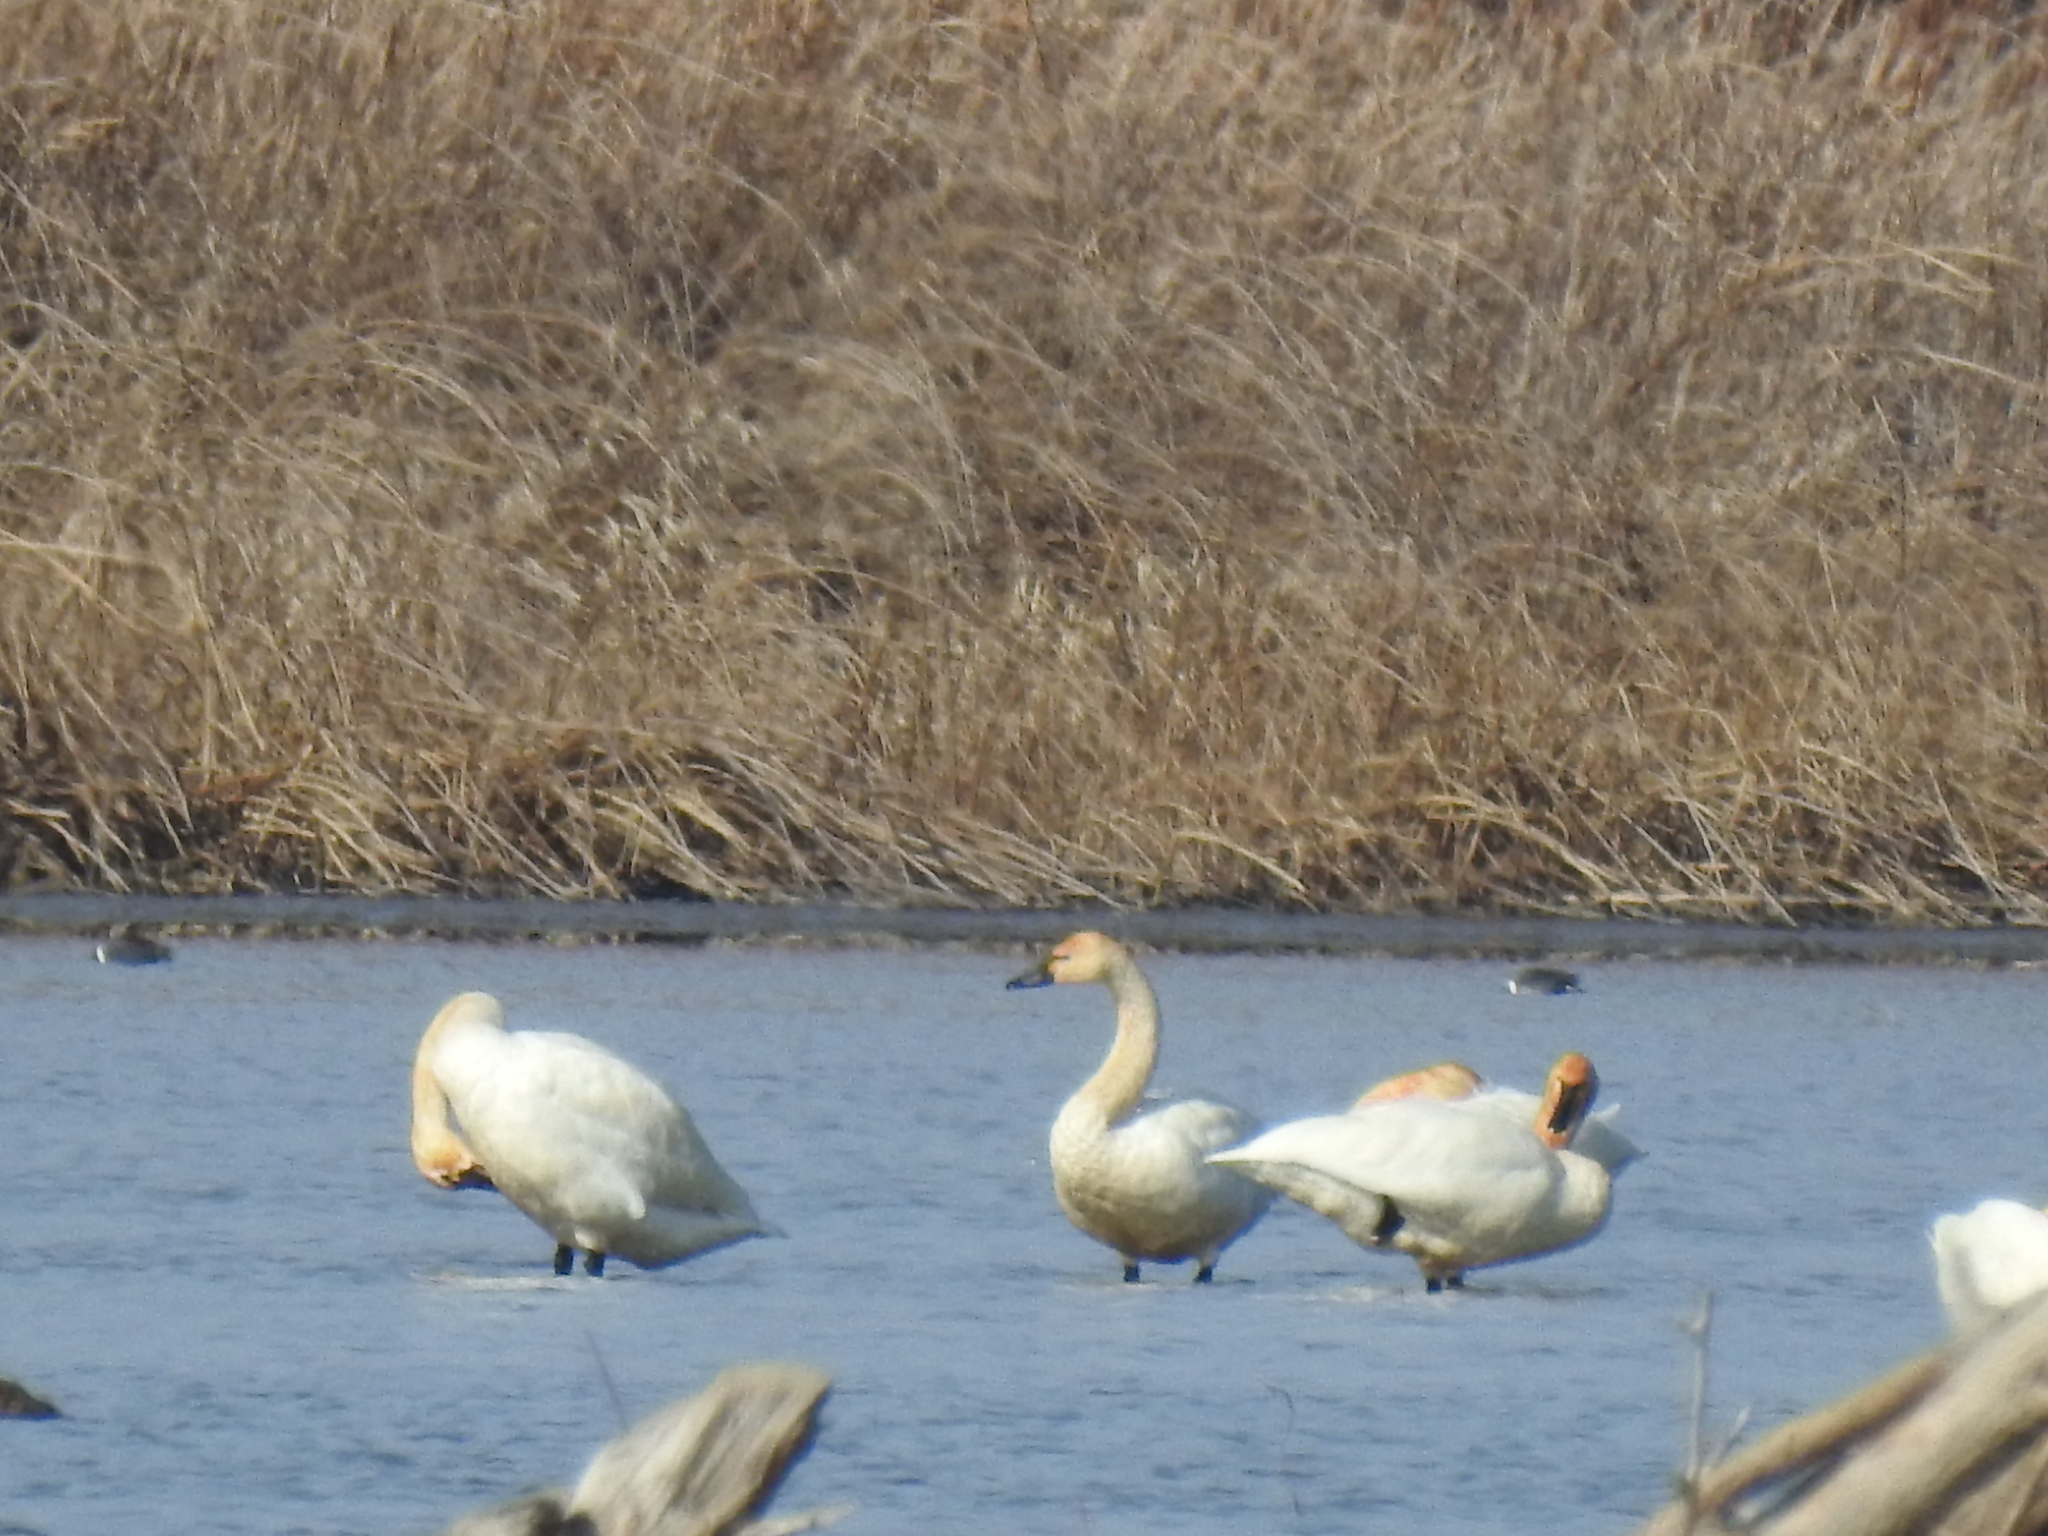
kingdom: Animalia
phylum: Chordata
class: Aves
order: Anseriformes
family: Anatidae
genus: Cygnus
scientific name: Cygnus columbianus
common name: Tundra swan
